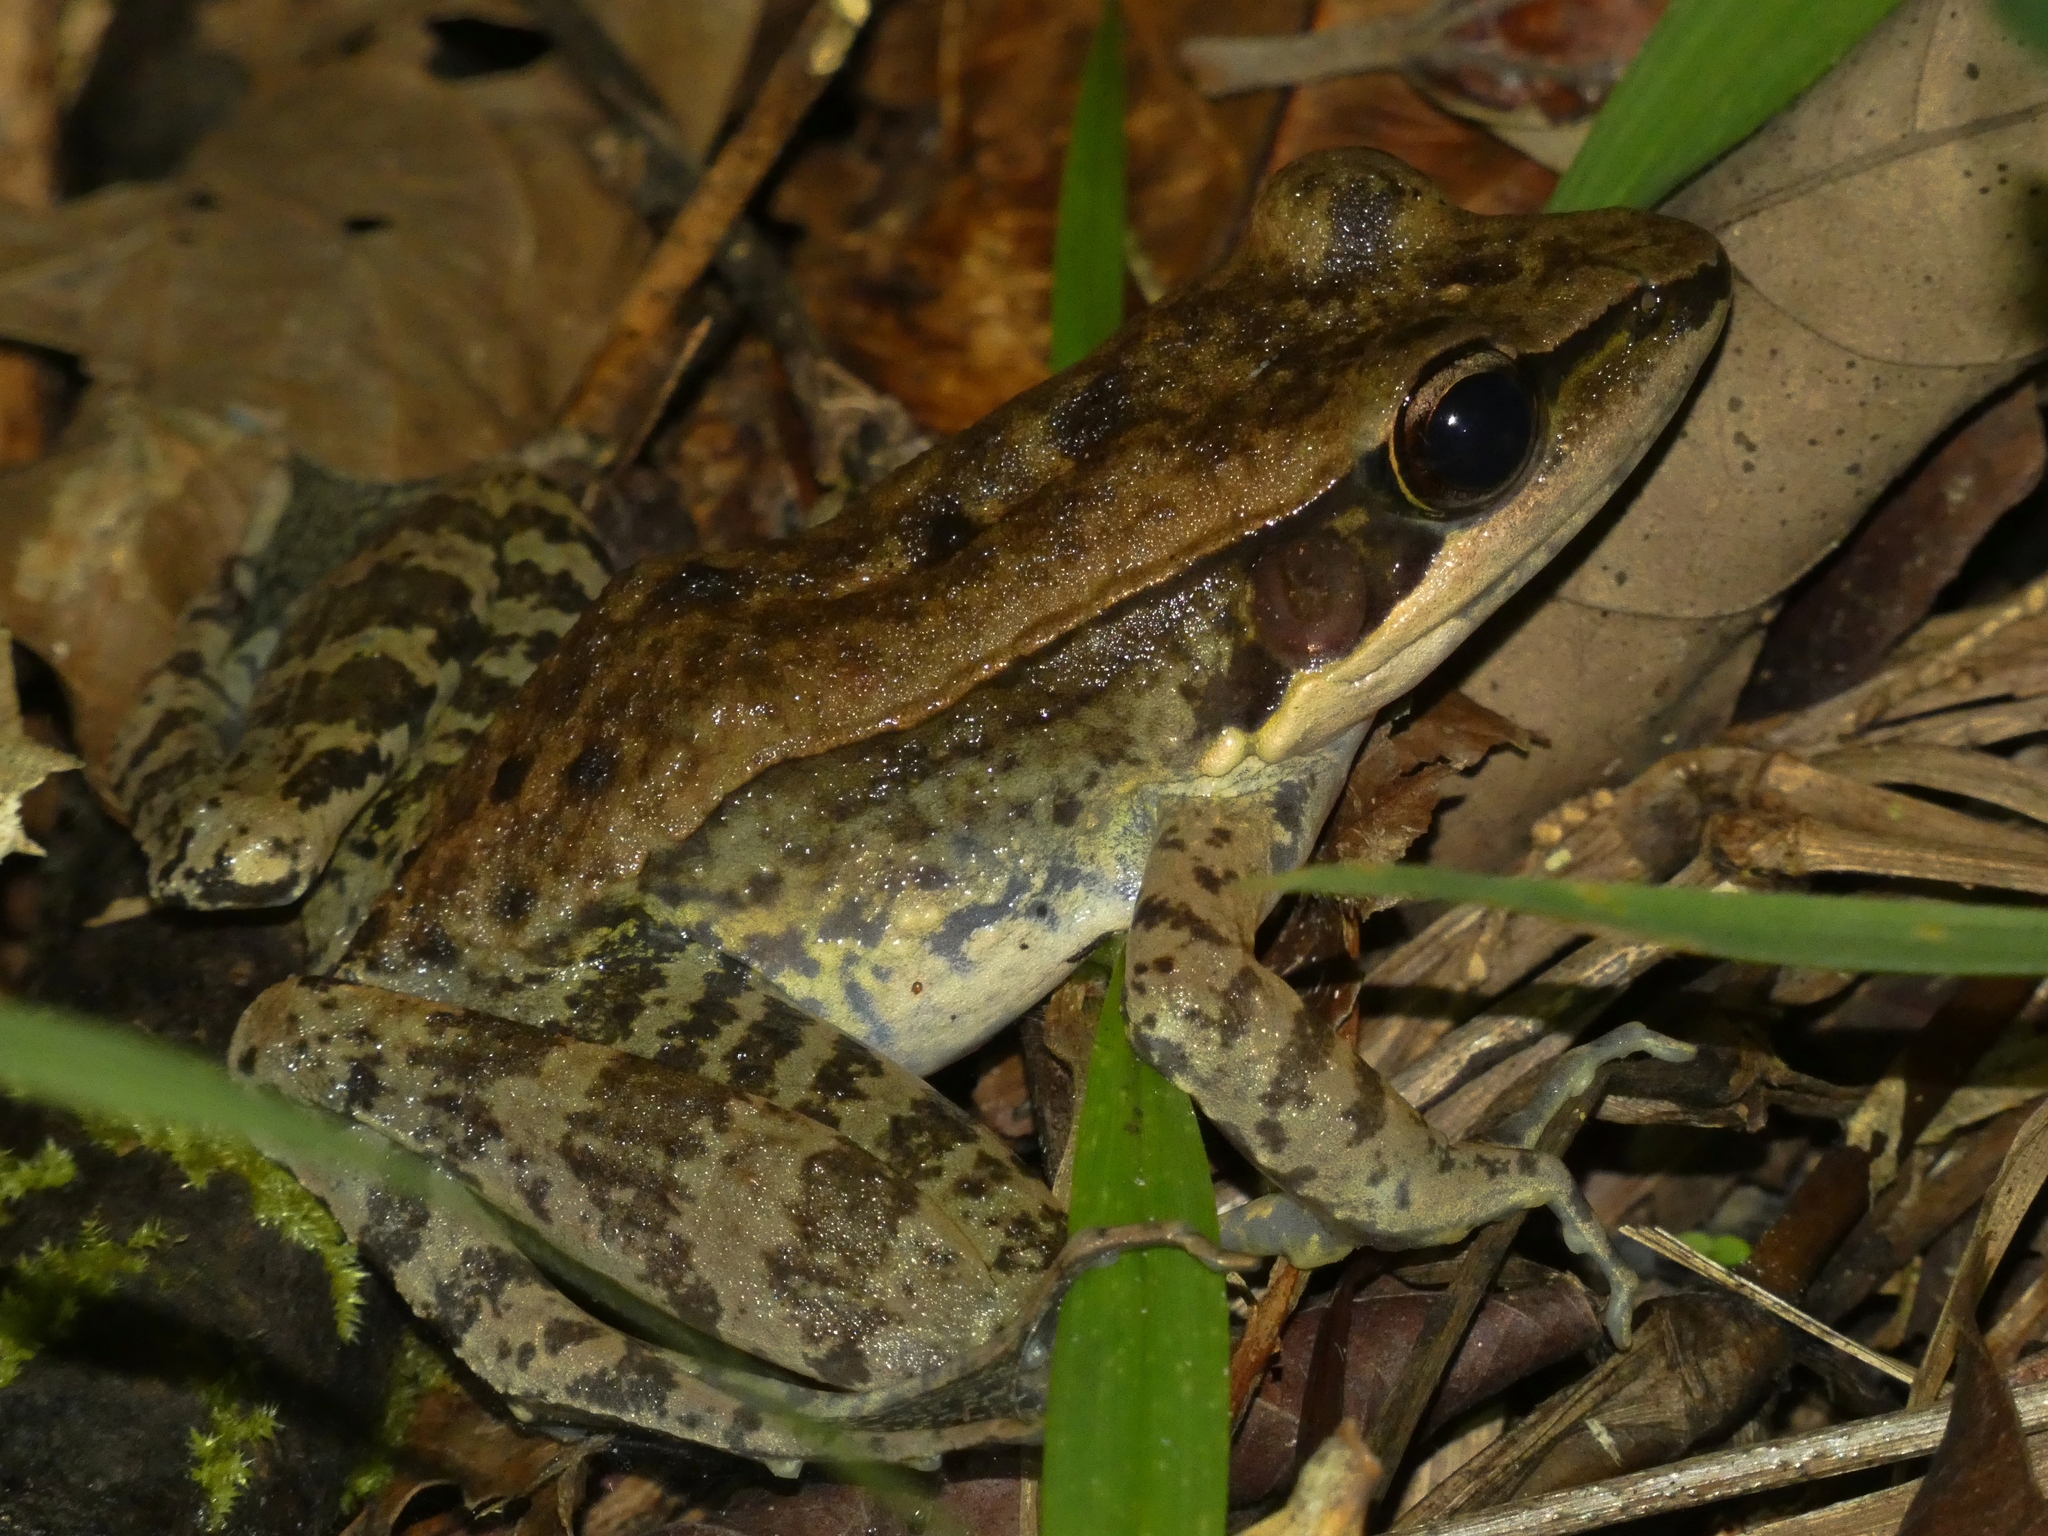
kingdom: Animalia
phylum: Chordata
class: Amphibia
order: Anura
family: Ranidae
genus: Papurana
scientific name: Papurana daemeli
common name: Arhem rana
